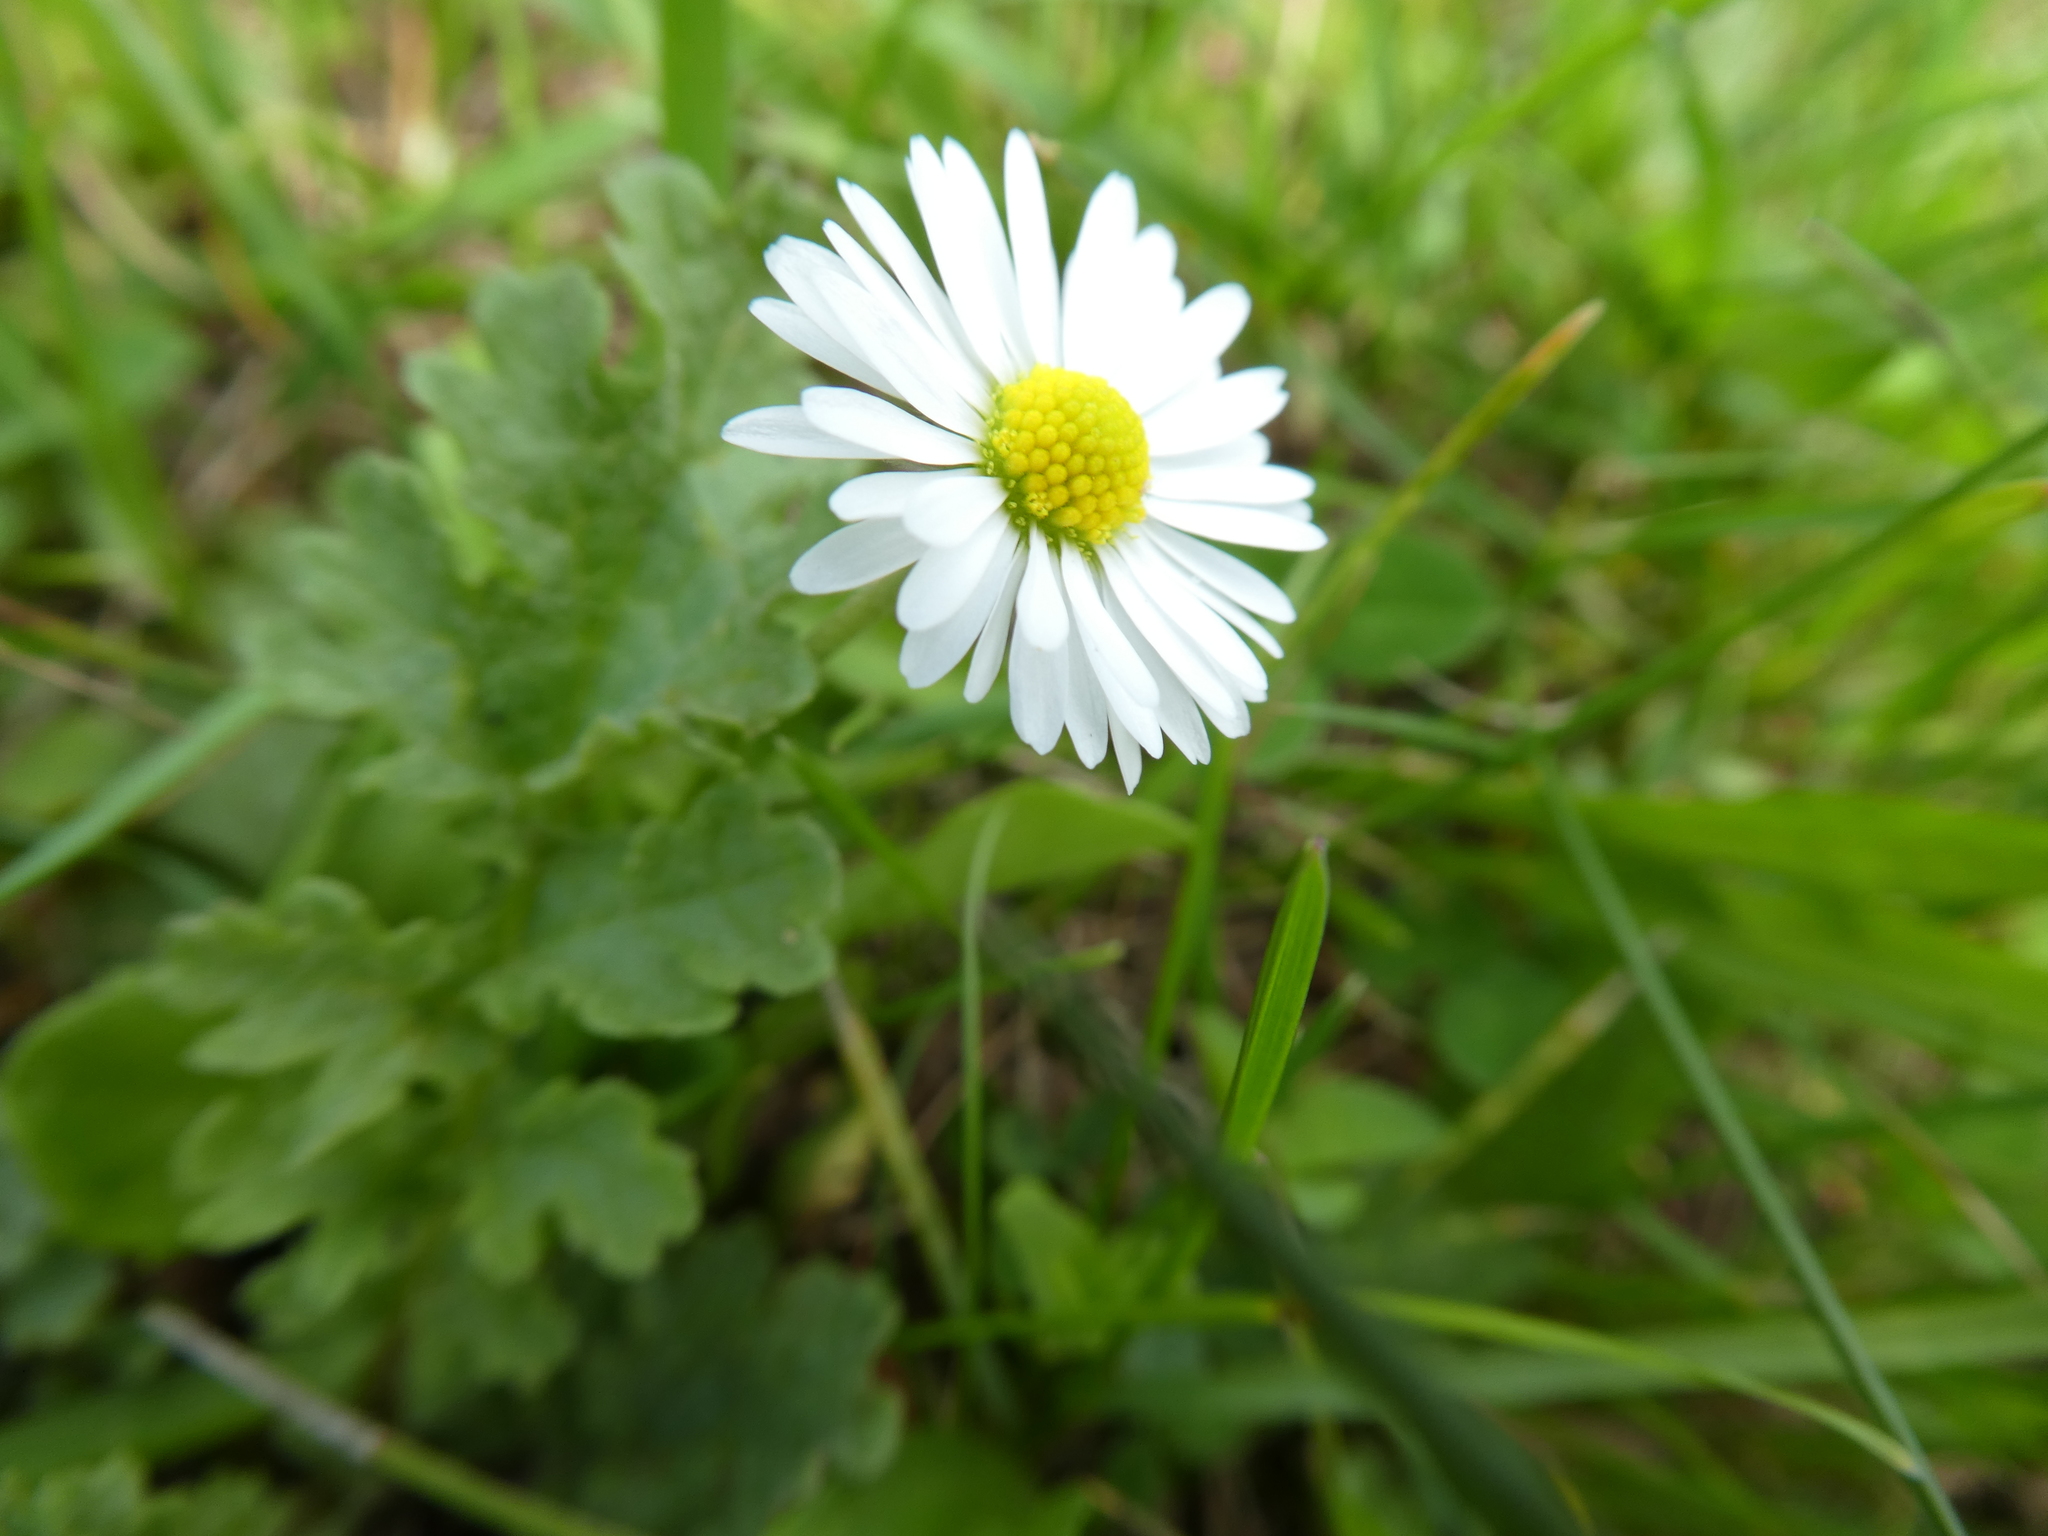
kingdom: Plantae
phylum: Tracheophyta
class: Magnoliopsida
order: Asterales
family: Asteraceae
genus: Bellis
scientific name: Bellis perennis
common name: Lawndaisy
